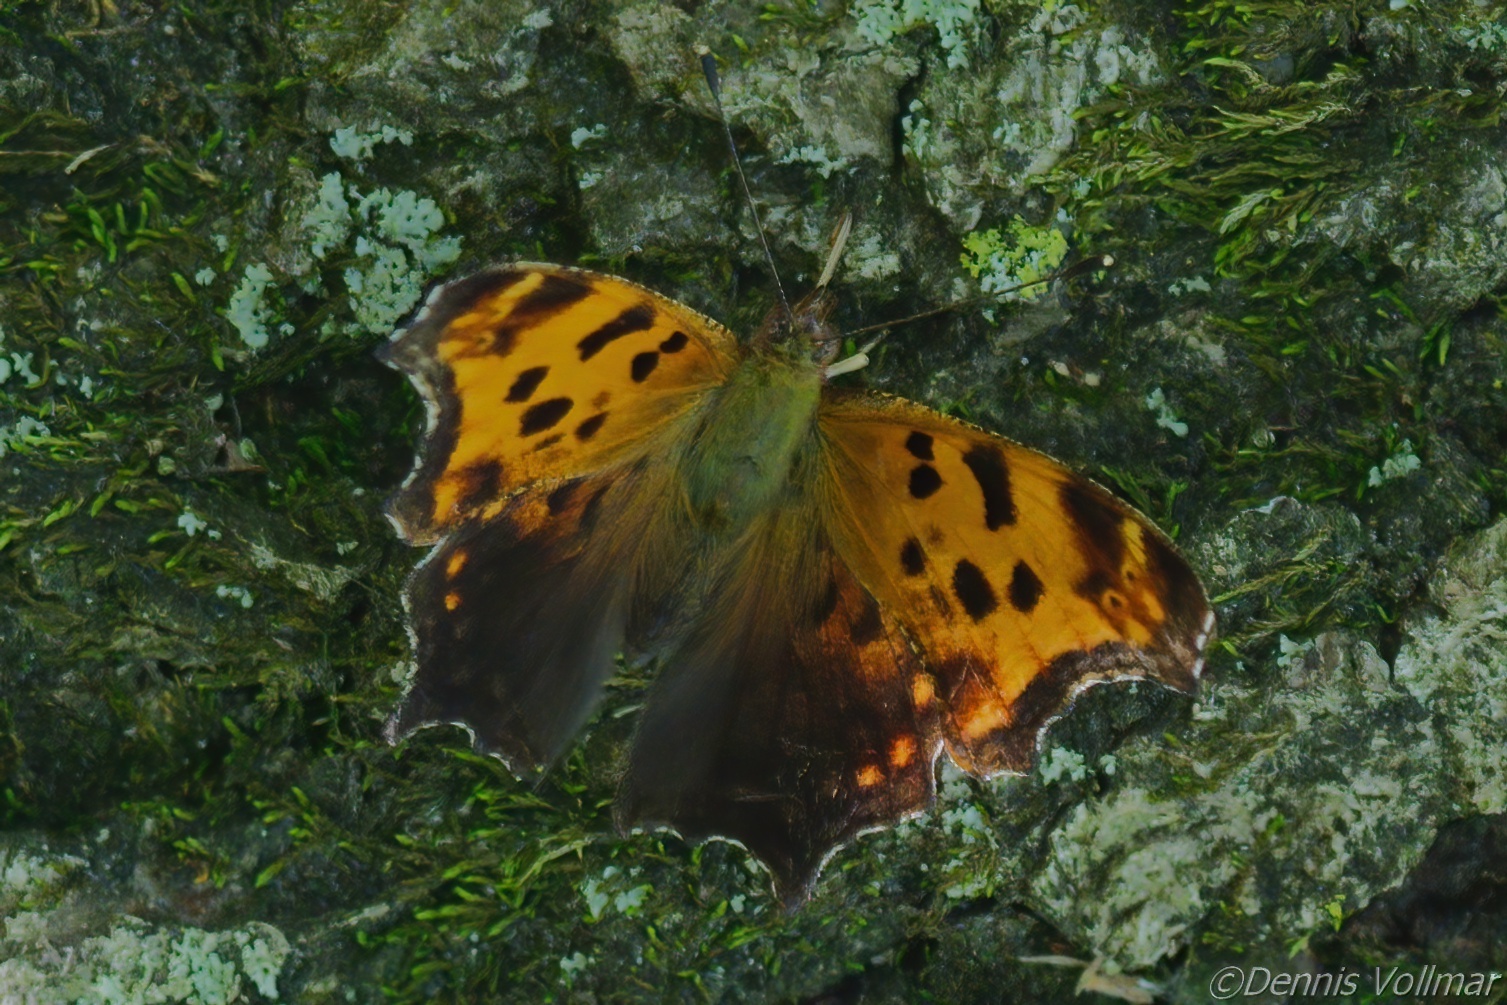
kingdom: Animalia
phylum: Arthropoda
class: Insecta
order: Lepidoptera
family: Nymphalidae
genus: Polygonia
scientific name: Polygonia comma
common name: Eastern comma
